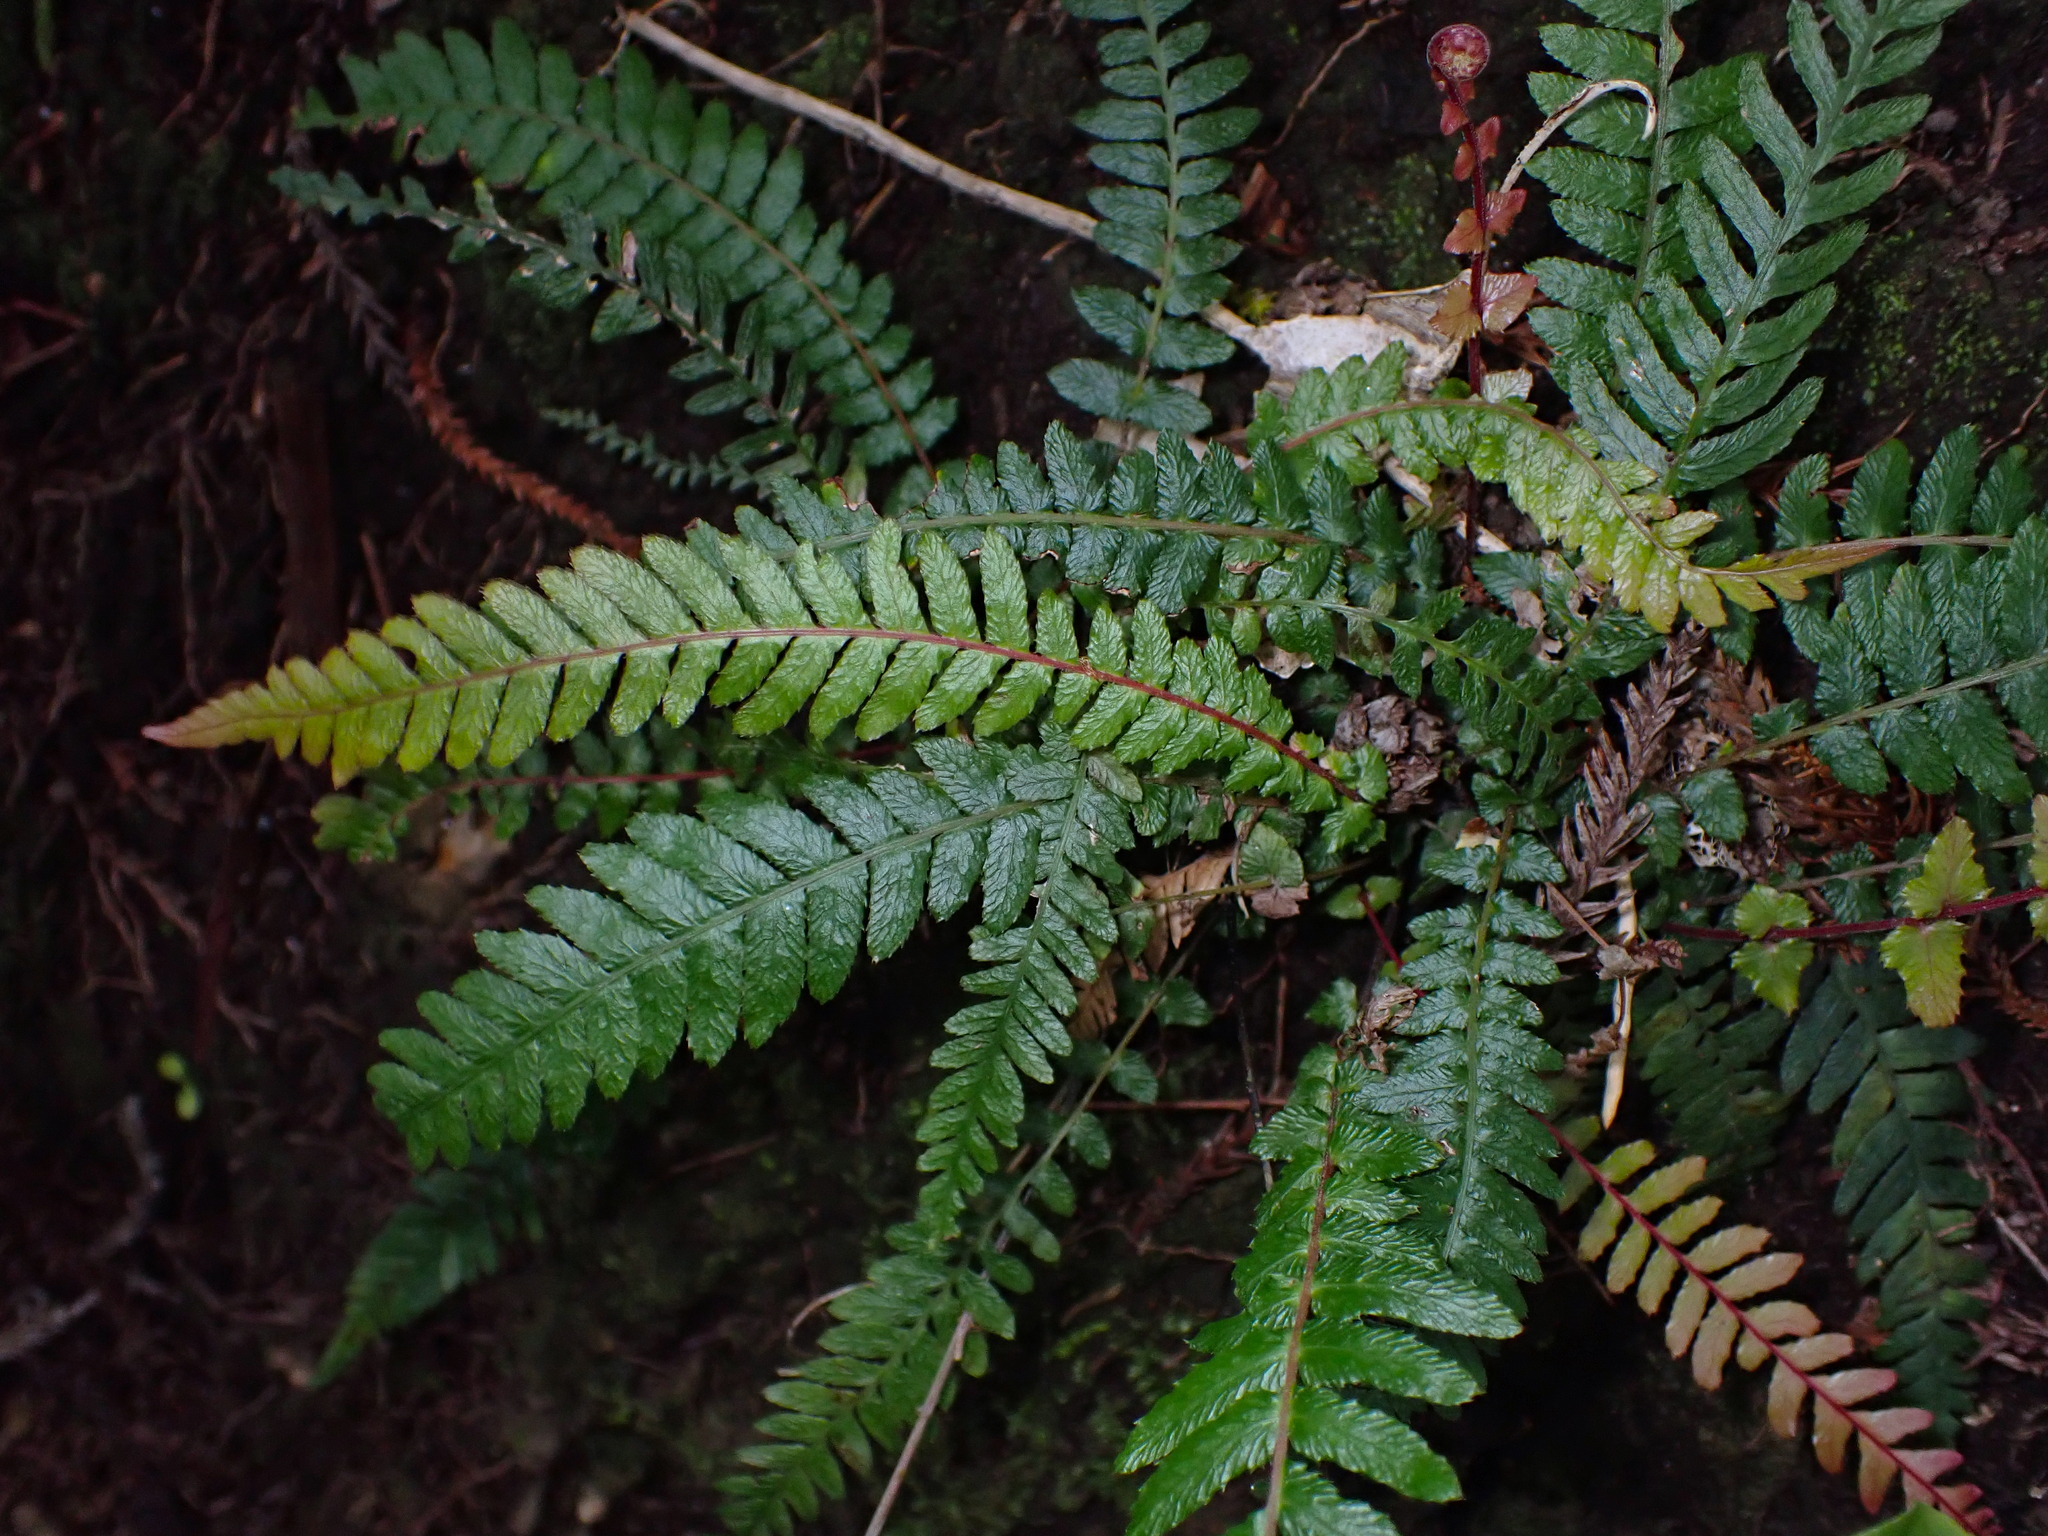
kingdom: Plantae
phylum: Tracheophyta
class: Polypodiopsida
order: Polypodiales
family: Blechnaceae
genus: Doodia
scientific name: Doodia australis
